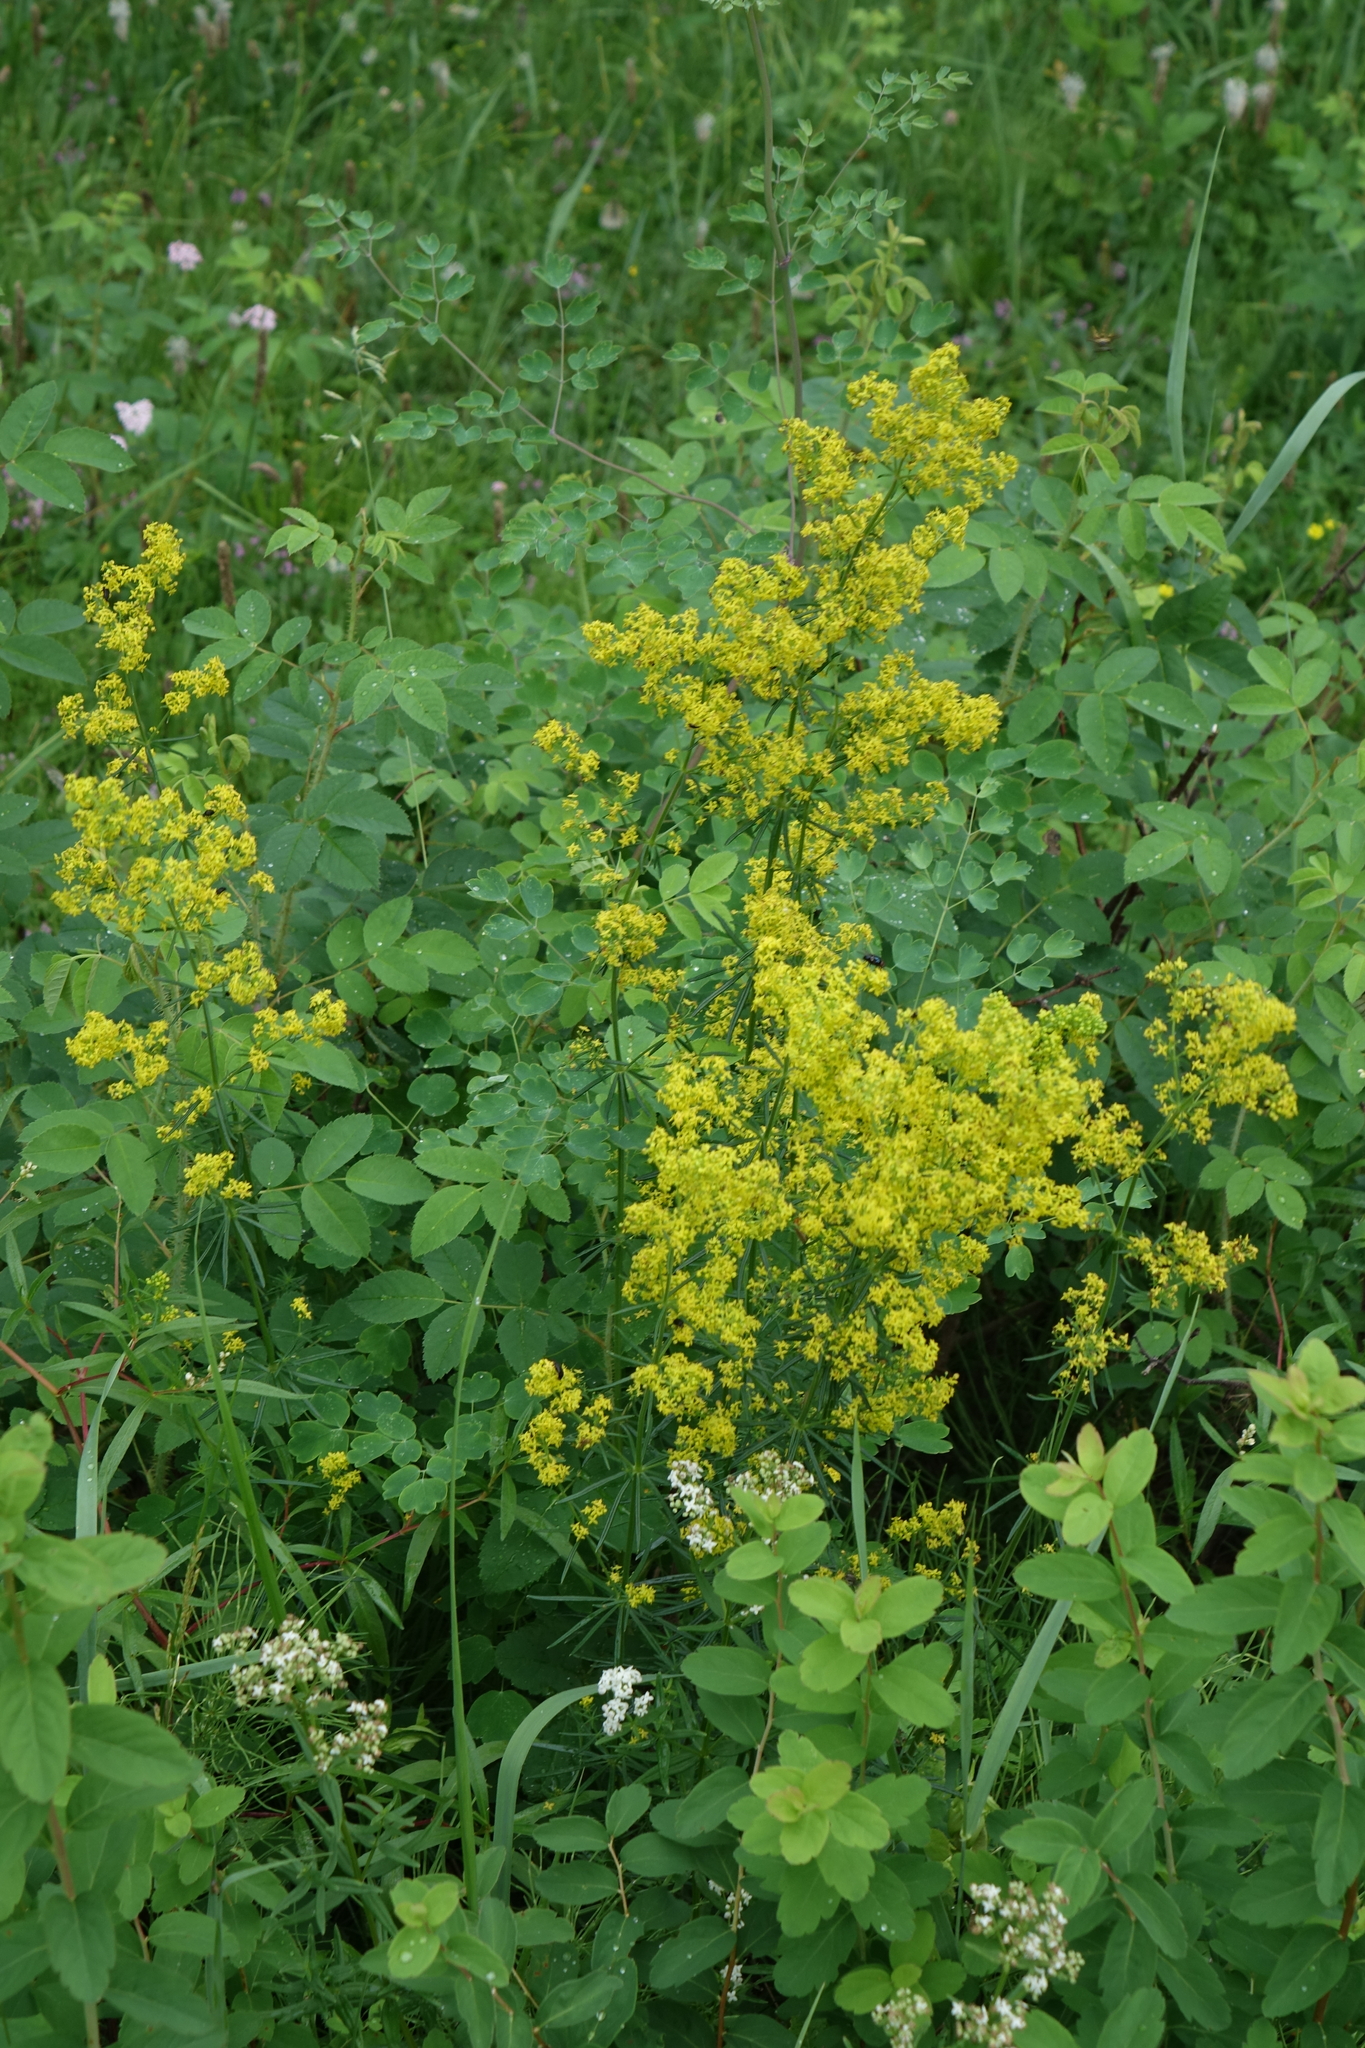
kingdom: Plantae
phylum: Tracheophyta
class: Magnoliopsida
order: Gentianales
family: Rubiaceae
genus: Galium
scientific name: Galium verum
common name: Lady's bedstraw
